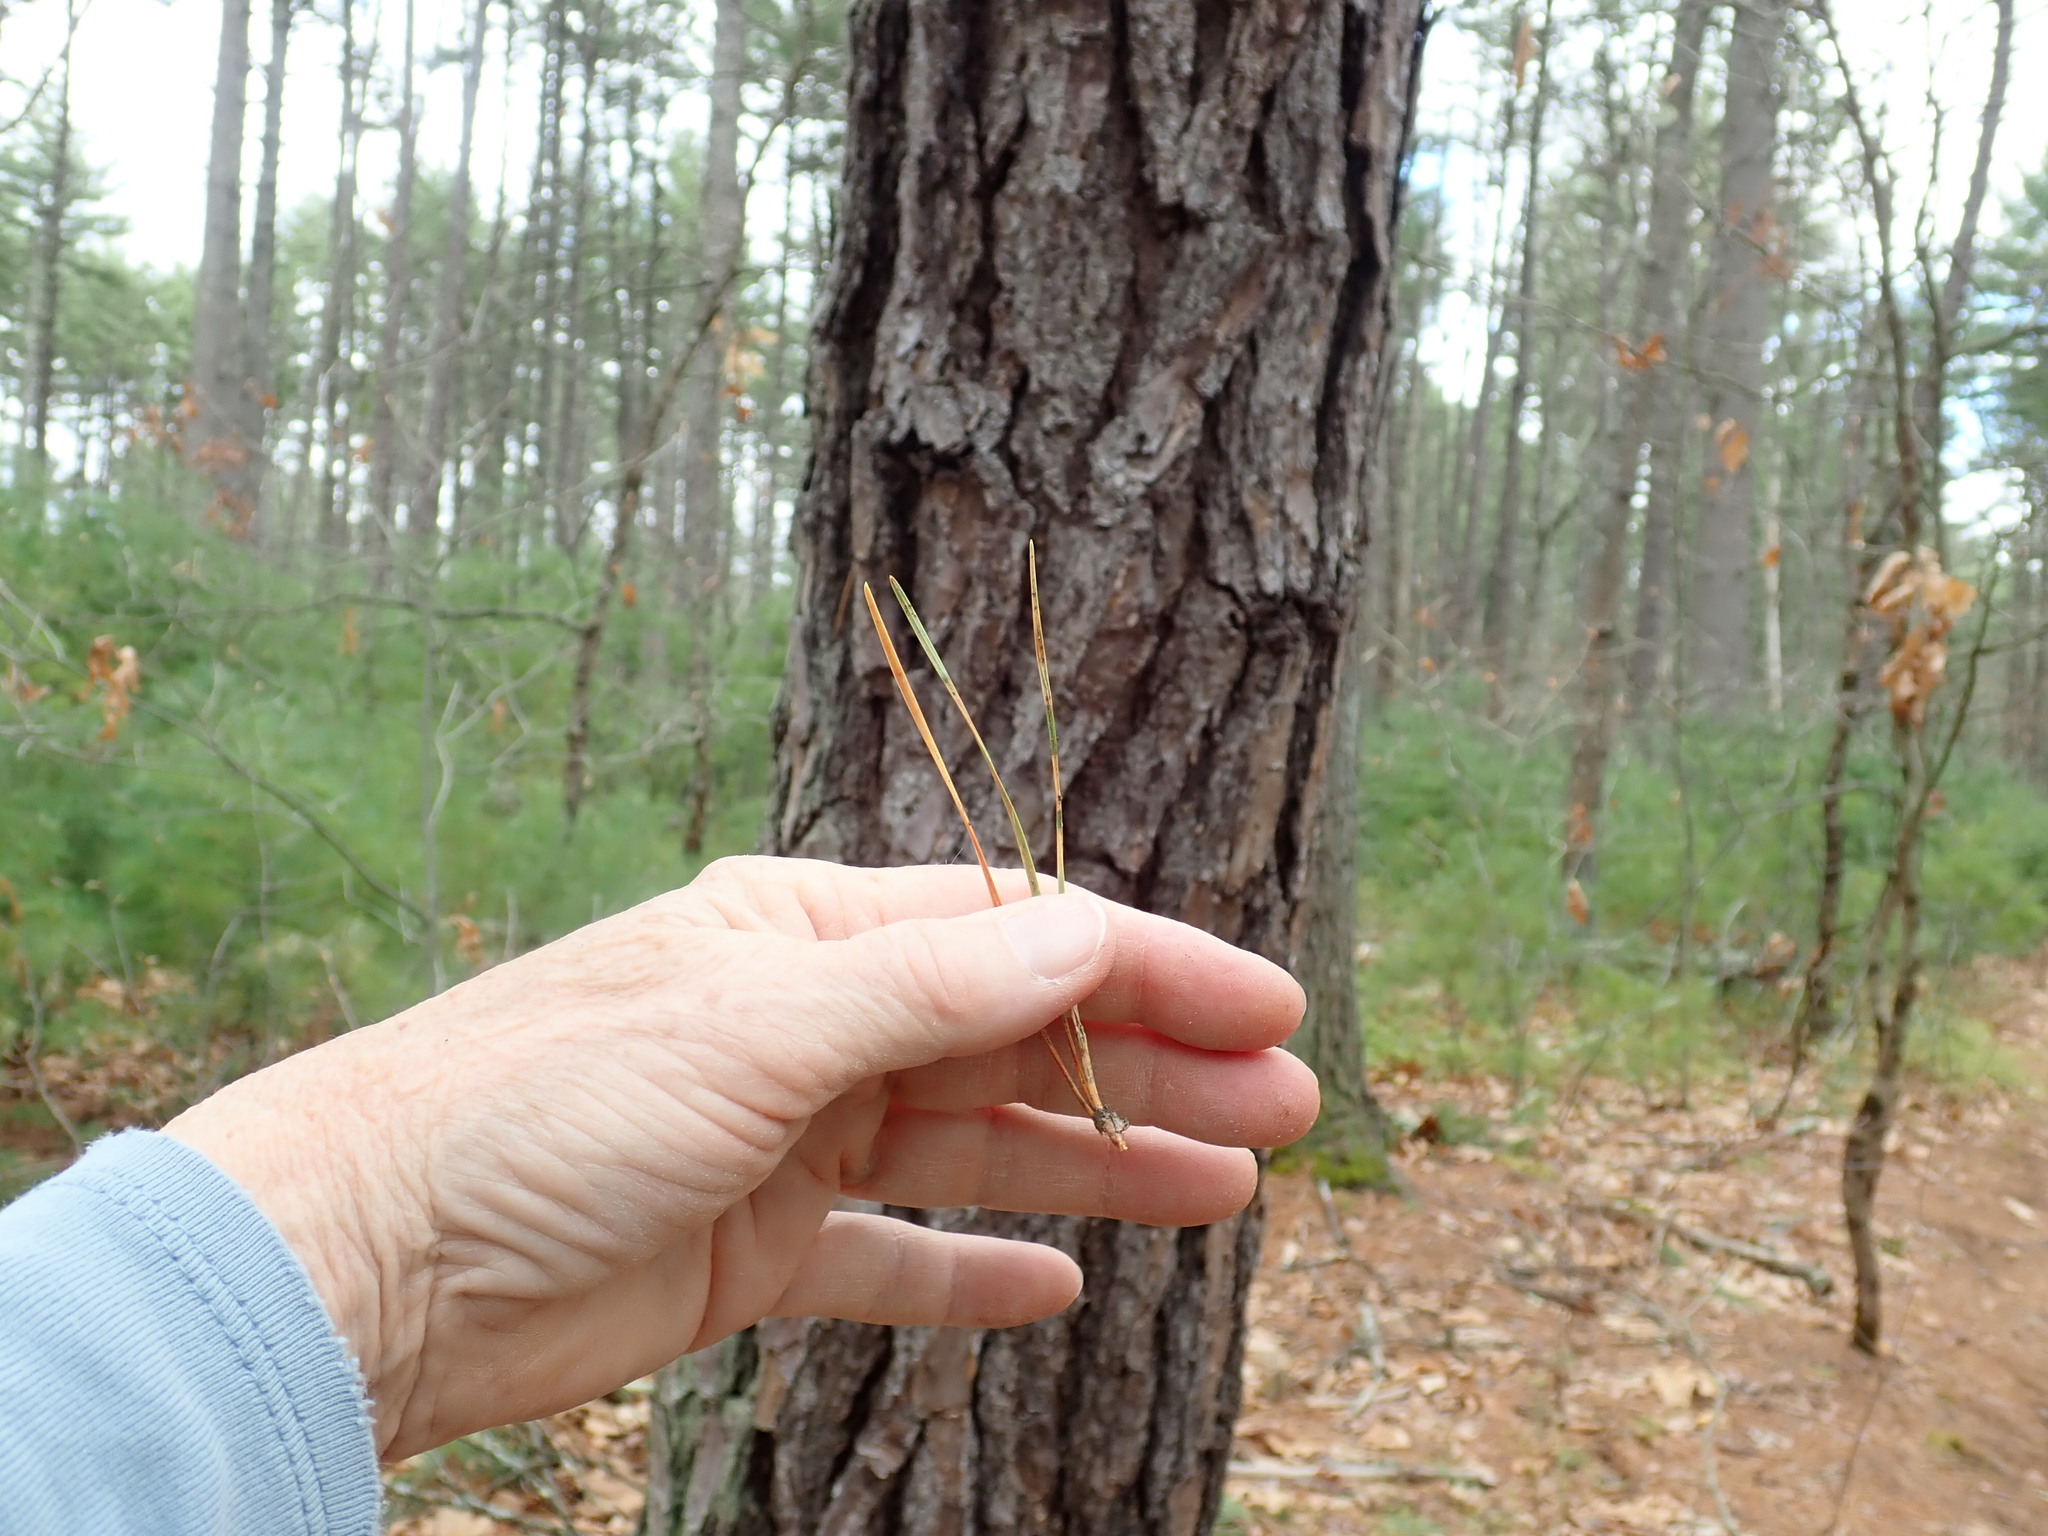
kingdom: Plantae
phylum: Tracheophyta
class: Pinopsida
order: Pinales
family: Pinaceae
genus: Pinus
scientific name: Pinus rigida
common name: Pitch pine
